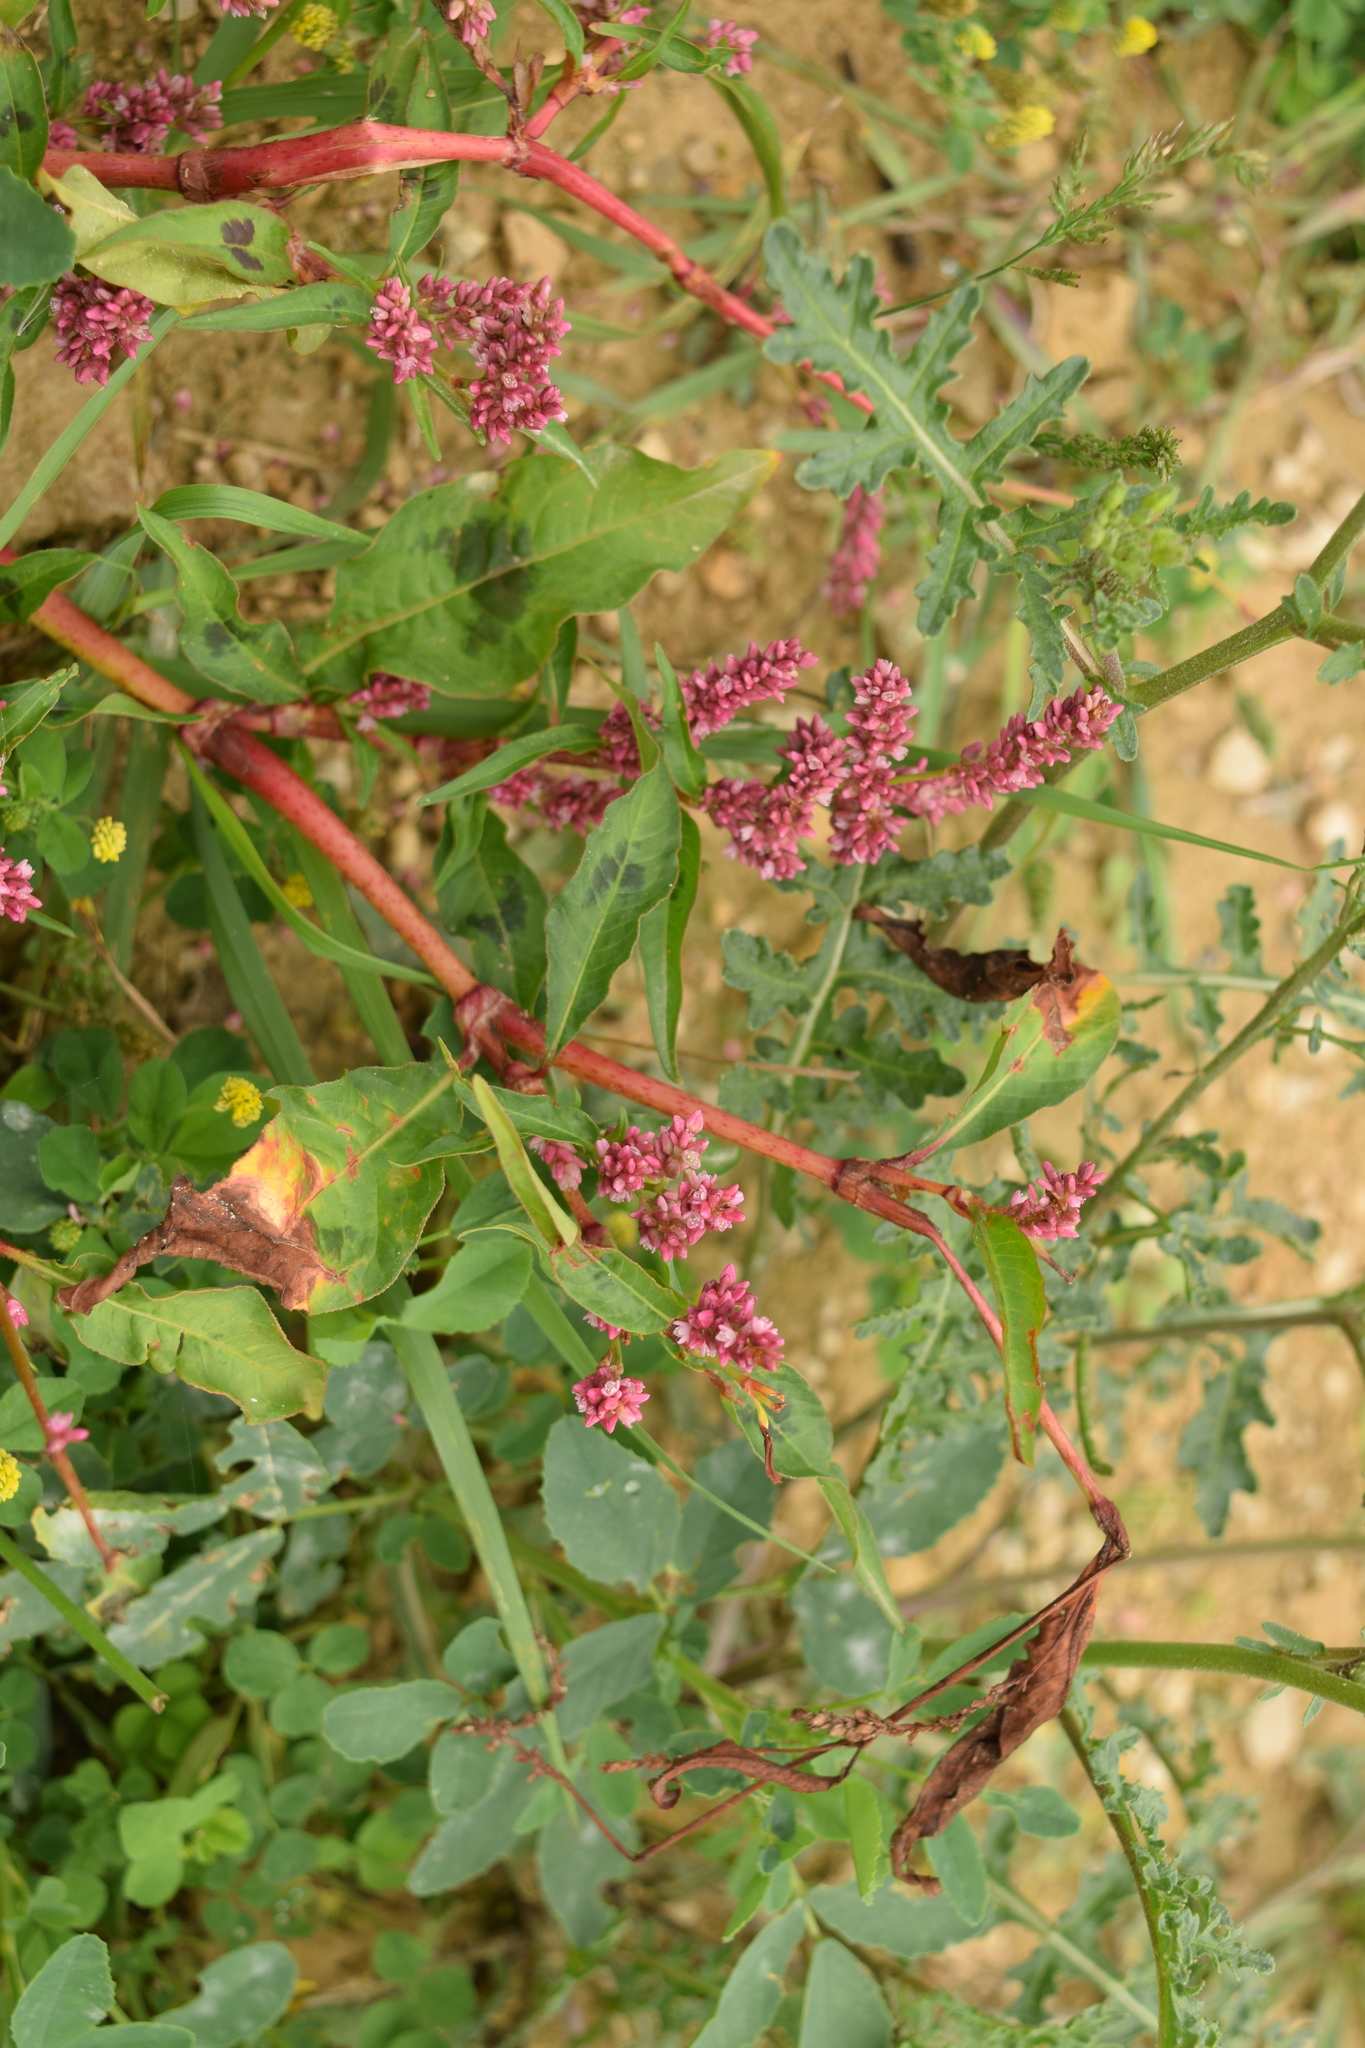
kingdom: Plantae
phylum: Tracheophyta
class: Magnoliopsida
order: Caryophyllales
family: Polygonaceae
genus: Persicaria
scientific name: Persicaria lapathifolia
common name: Curlytop knotweed
